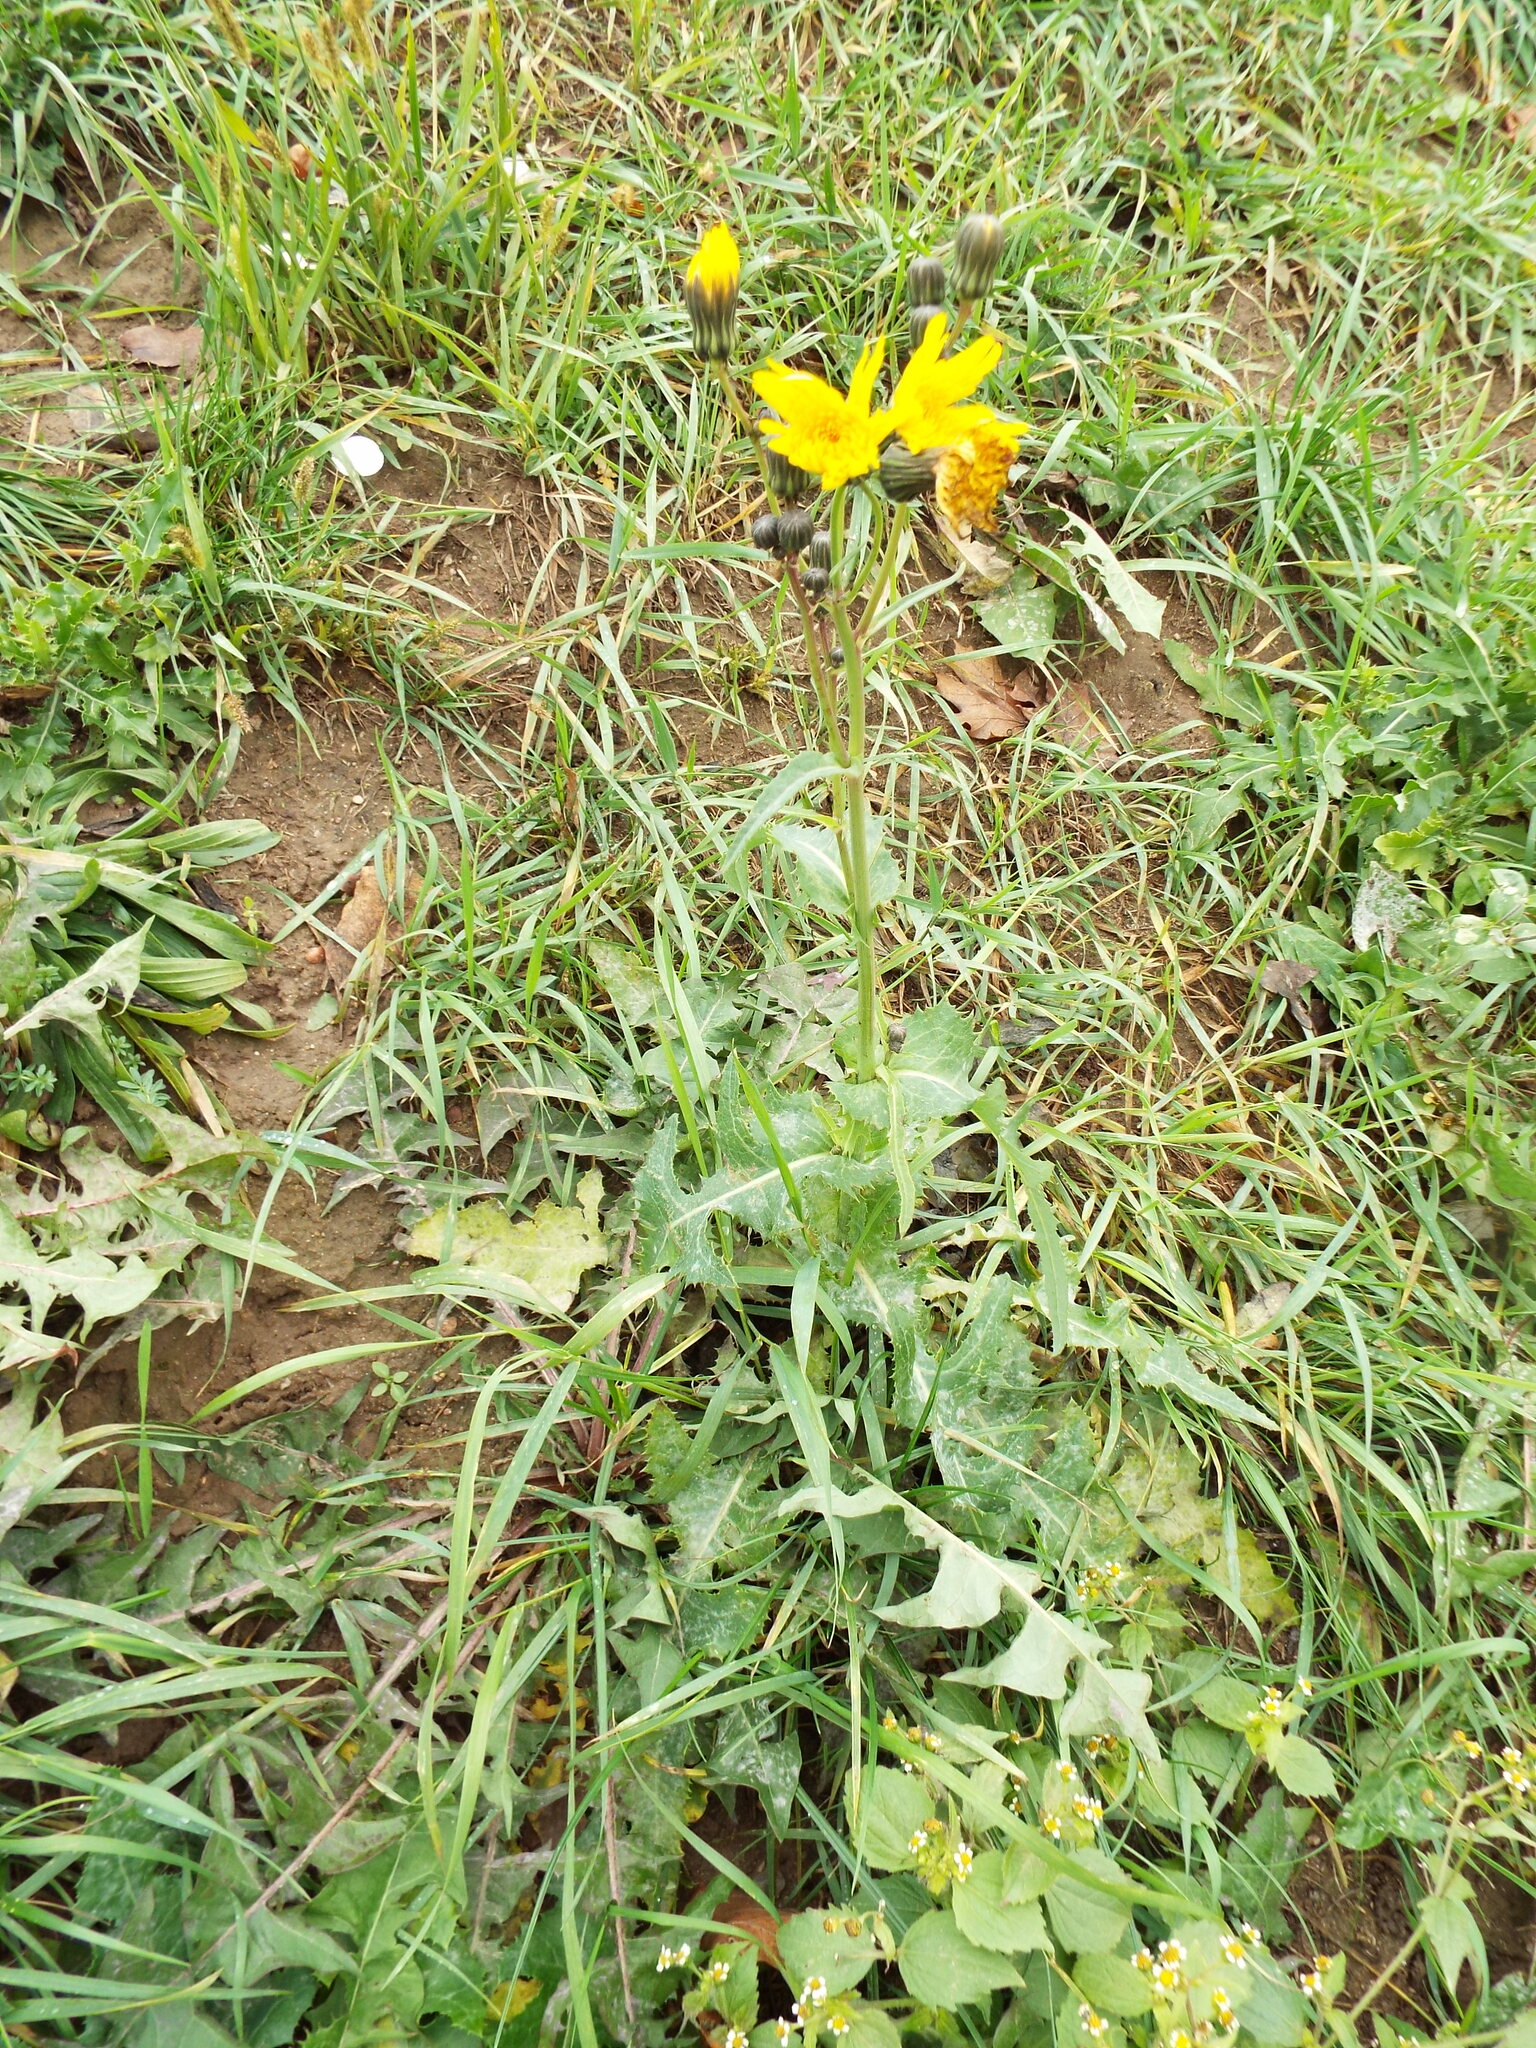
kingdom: Plantae
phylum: Tracheophyta
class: Magnoliopsida
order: Asterales
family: Asteraceae
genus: Sonchus
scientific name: Sonchus arvensis
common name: Perennial sow-thistle
